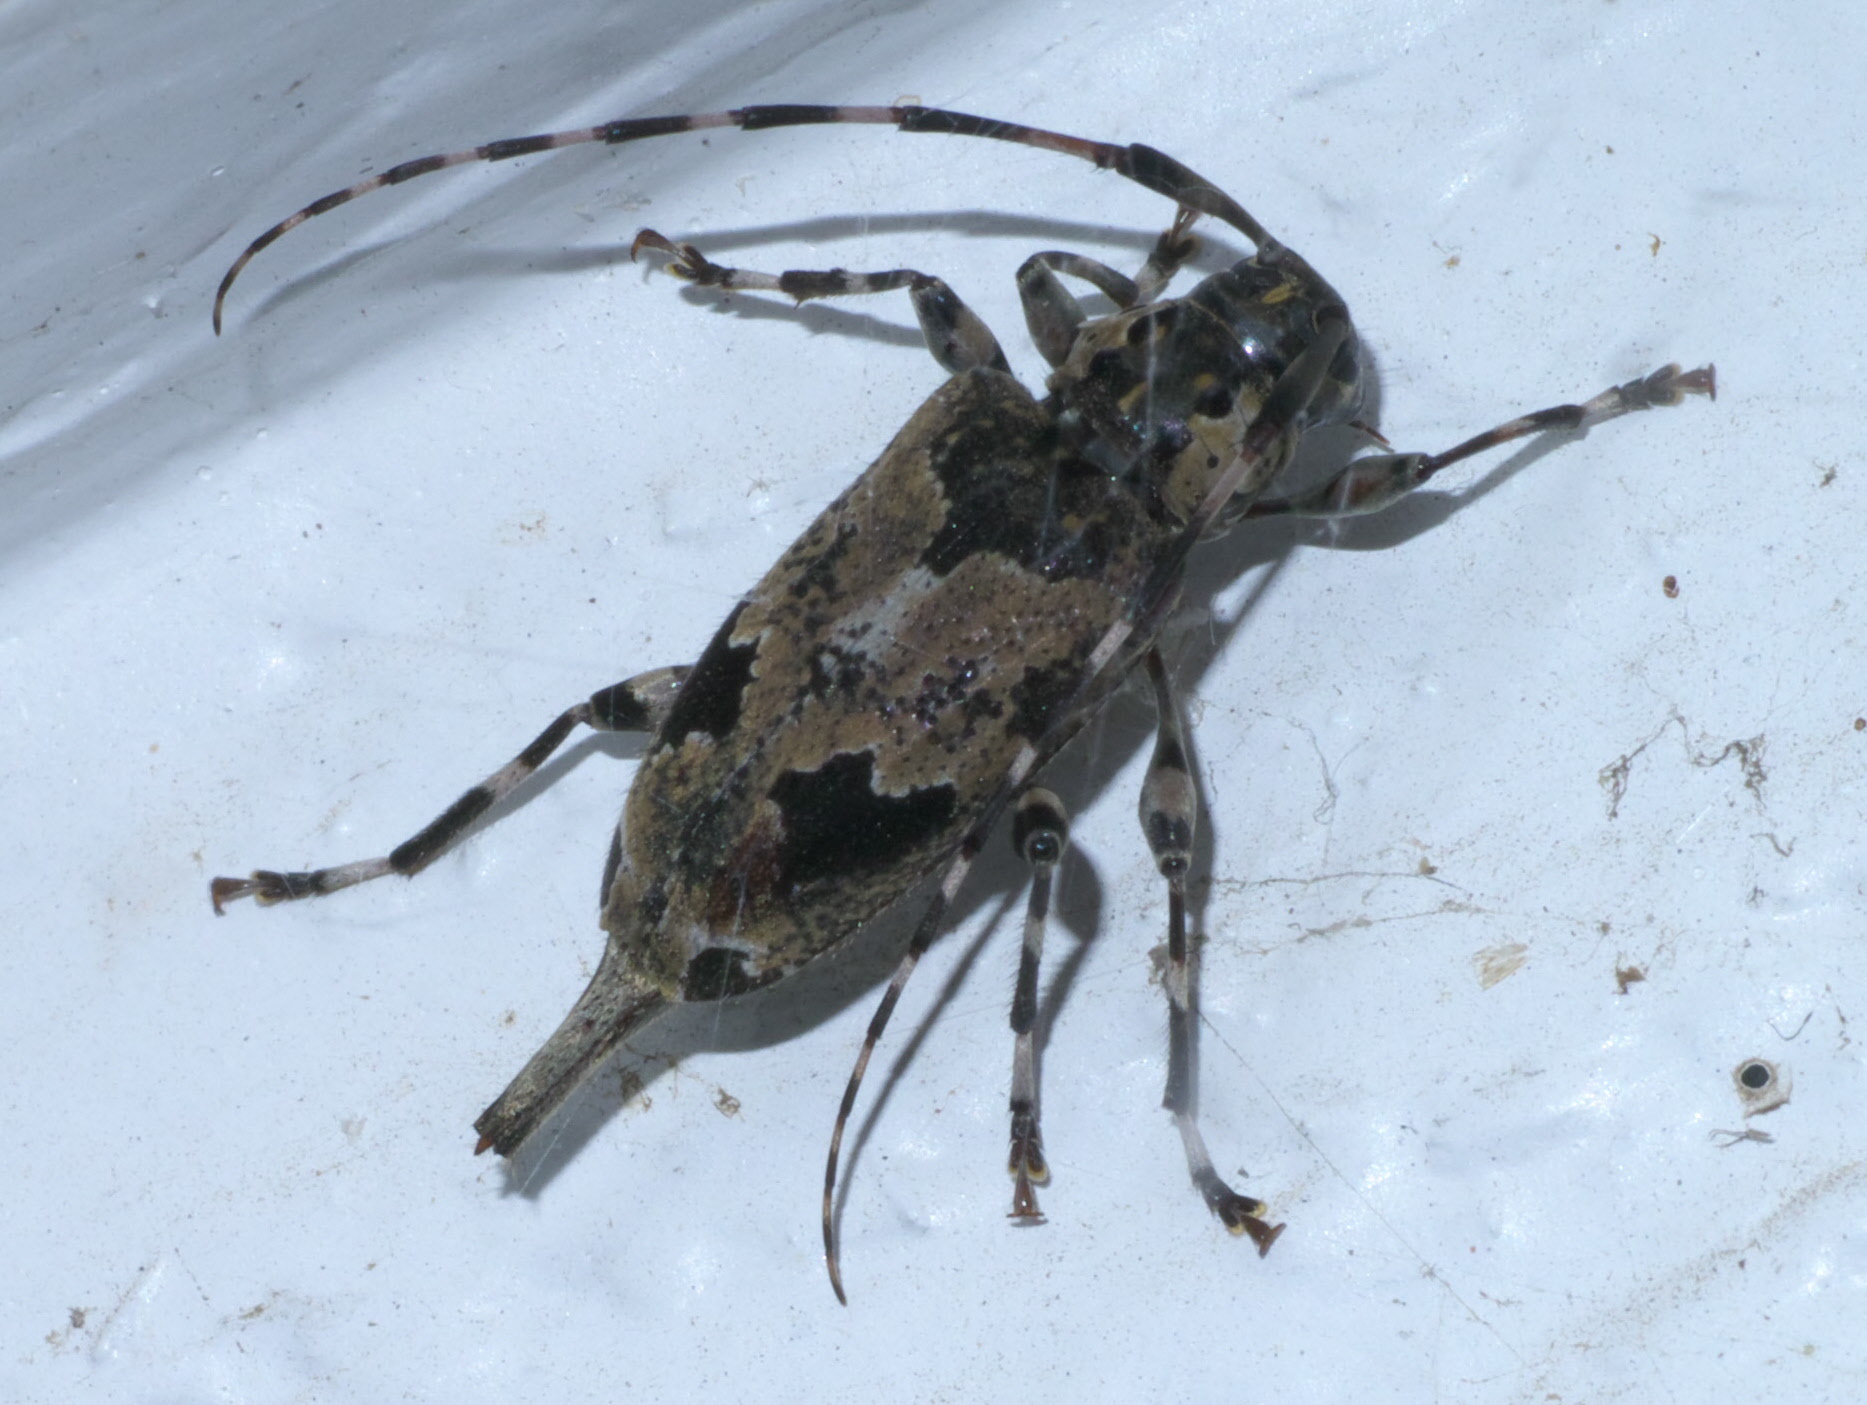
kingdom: Animalia
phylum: Arthropoda
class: Insecta
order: Coleoptera
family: Cerambycidae
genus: Graphisurus
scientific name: Graphisurus triangulifer
